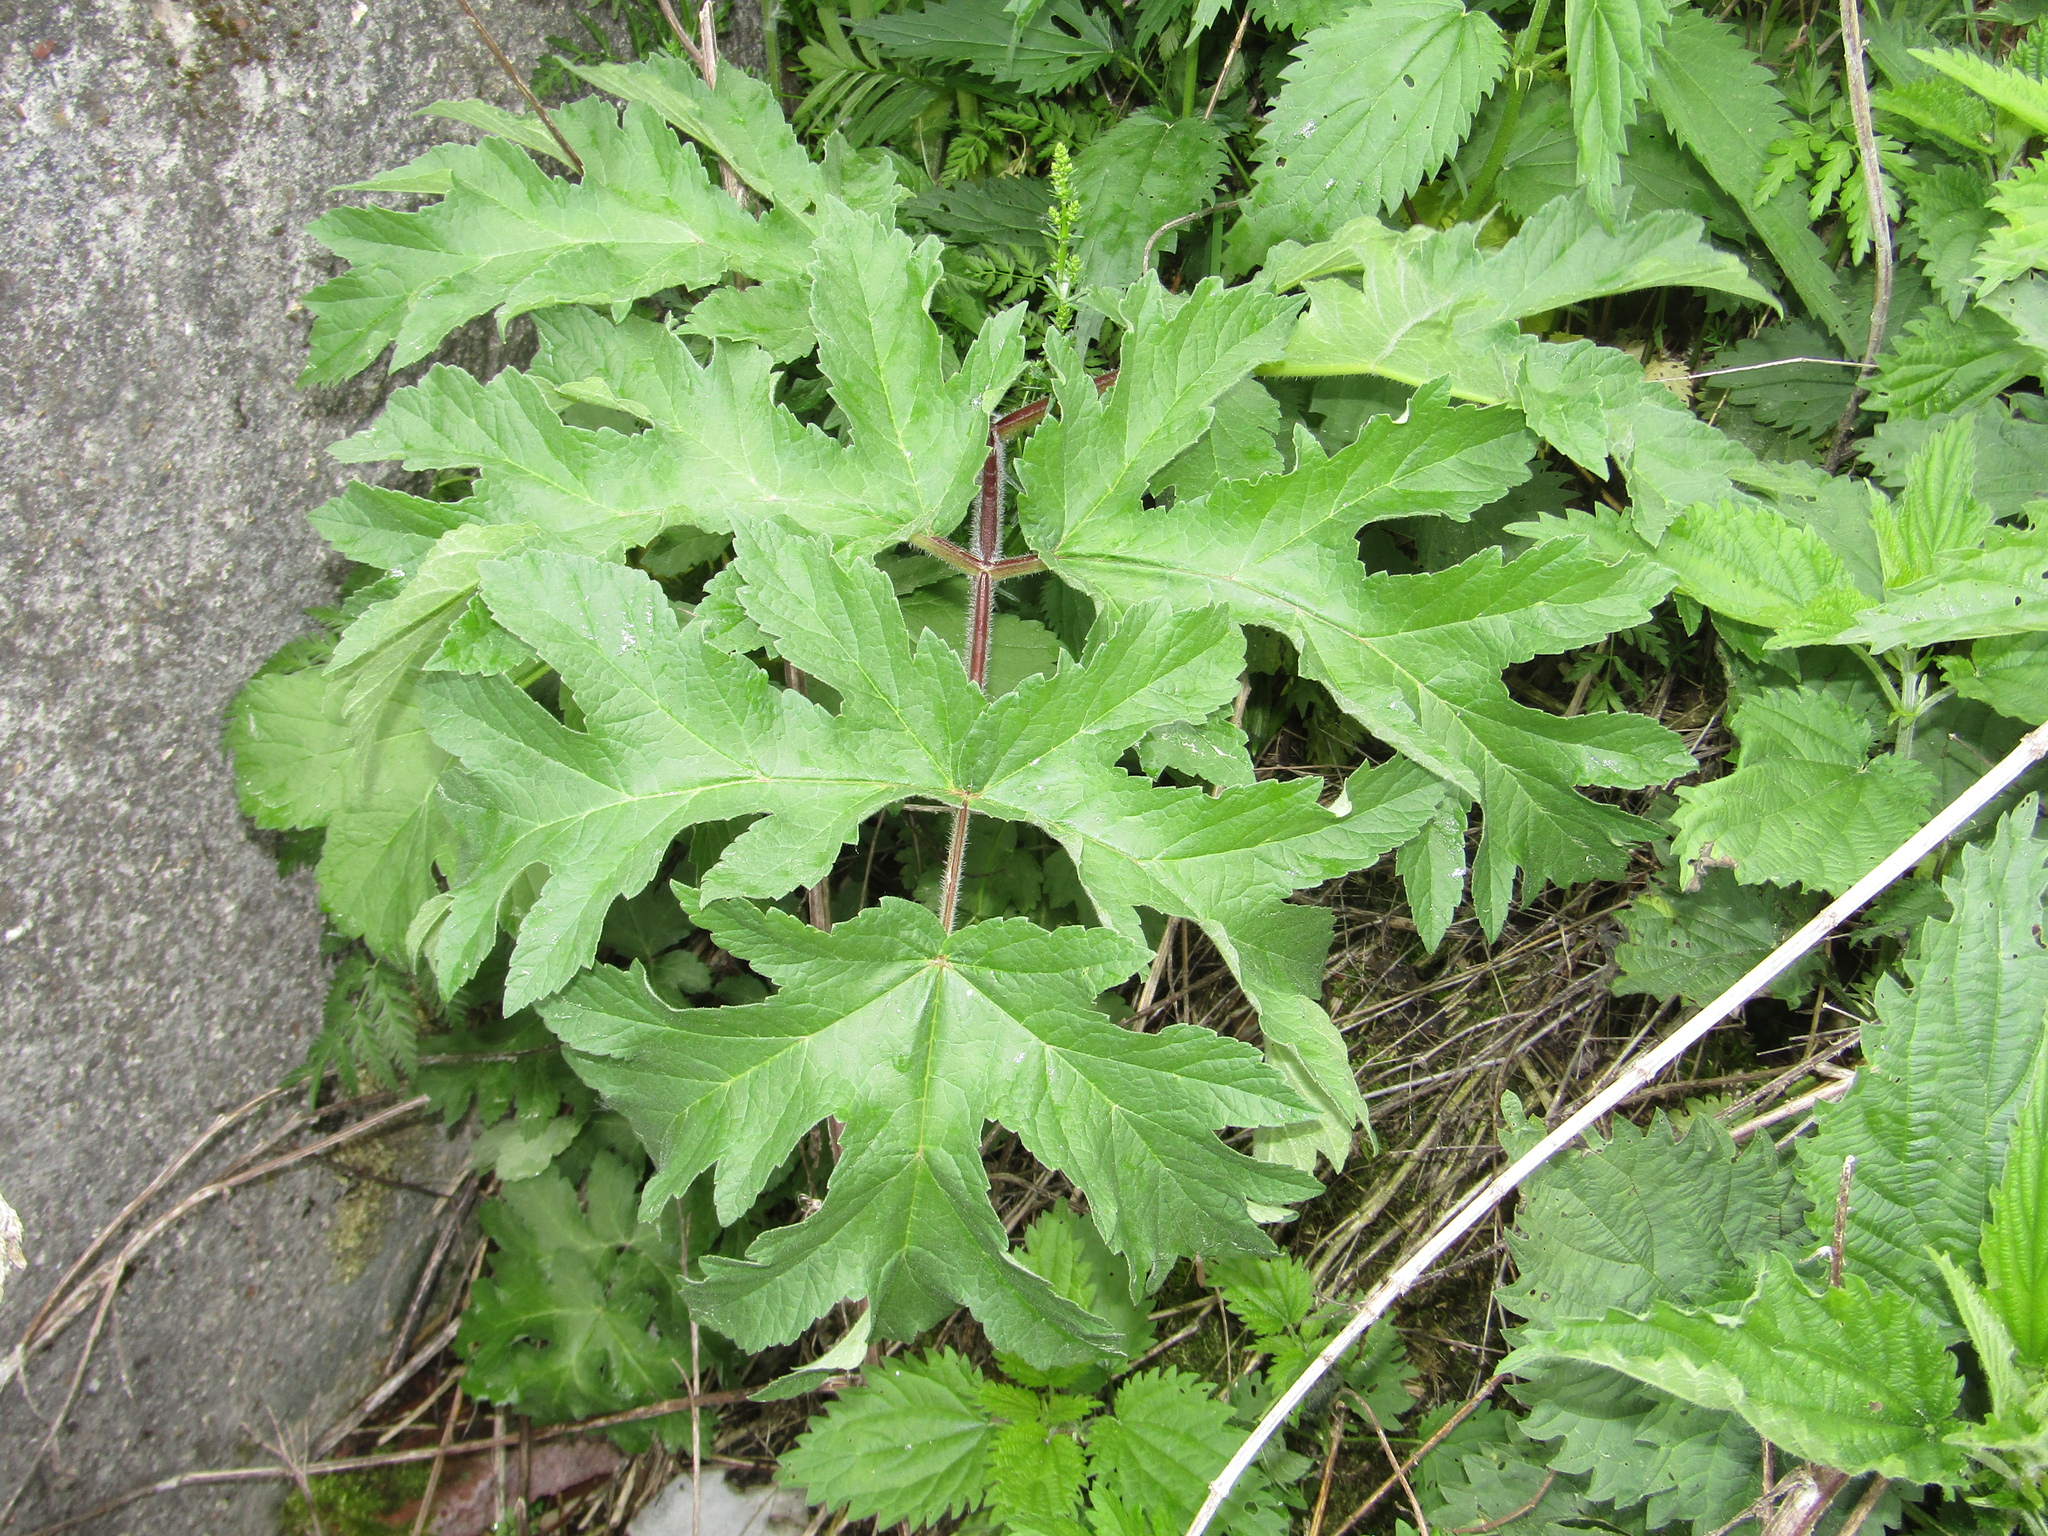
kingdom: Plantae
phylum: Tracheophyta
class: Magnoliopsida
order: Apiales
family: Apiaceae
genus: Heracleum
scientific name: Heracleum sphondylium
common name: Hogweed
